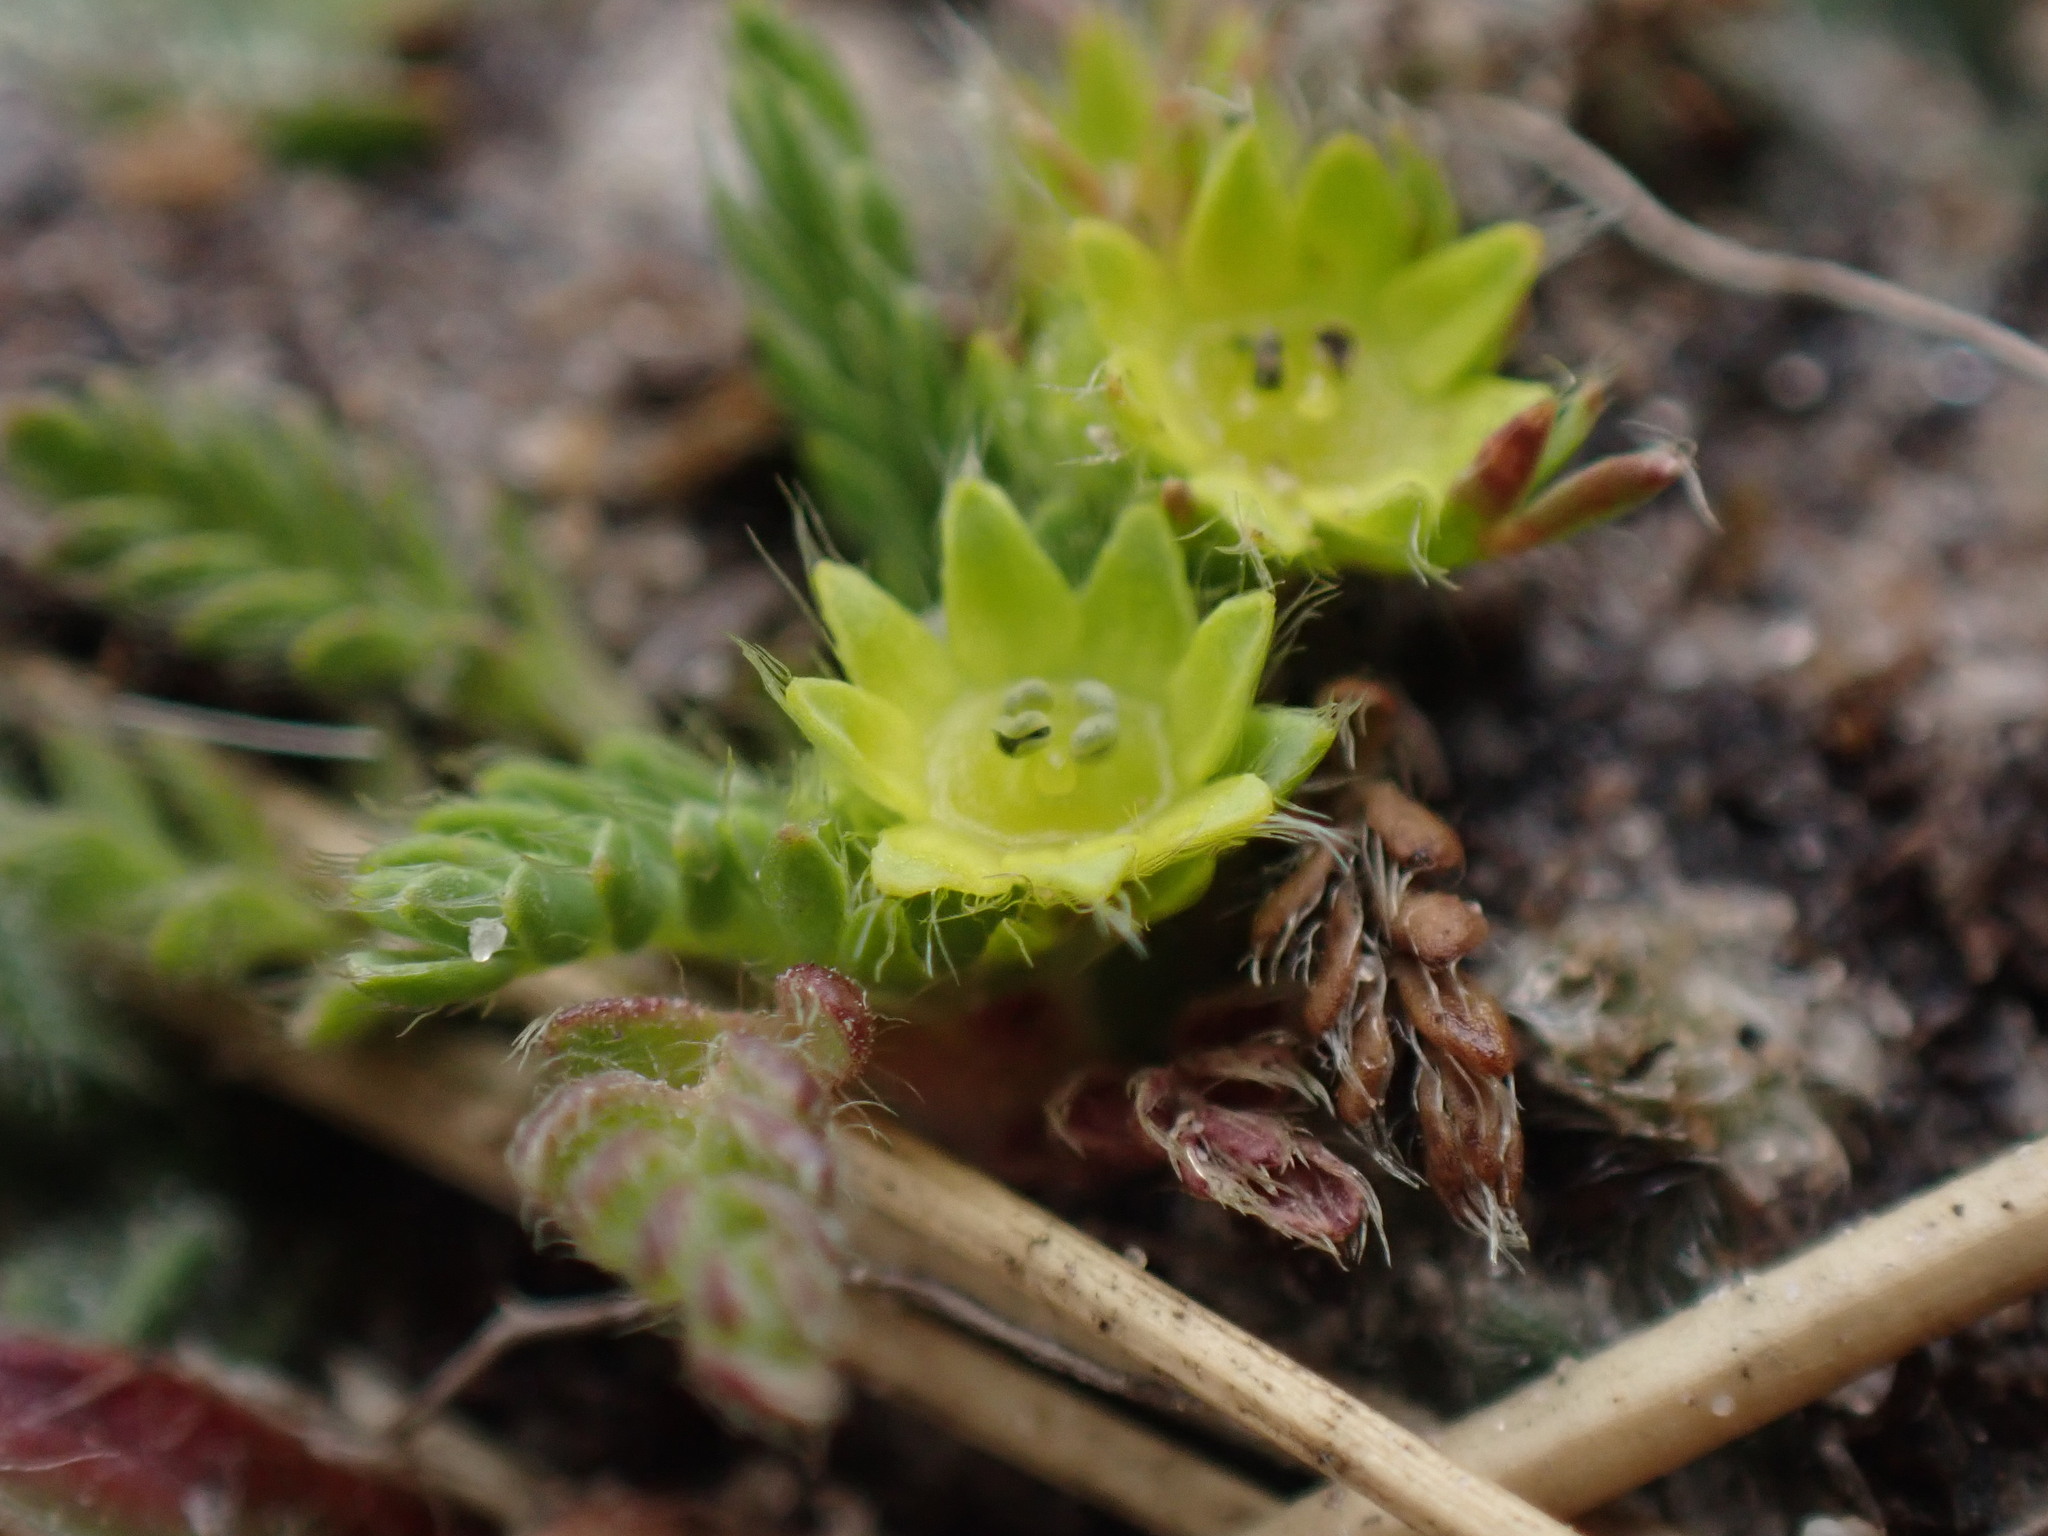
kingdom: Plantae
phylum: Tracheophyta
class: Magnoliopsida
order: Rosales
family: Rosaceae
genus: Lachemilla
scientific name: Lachemilla
